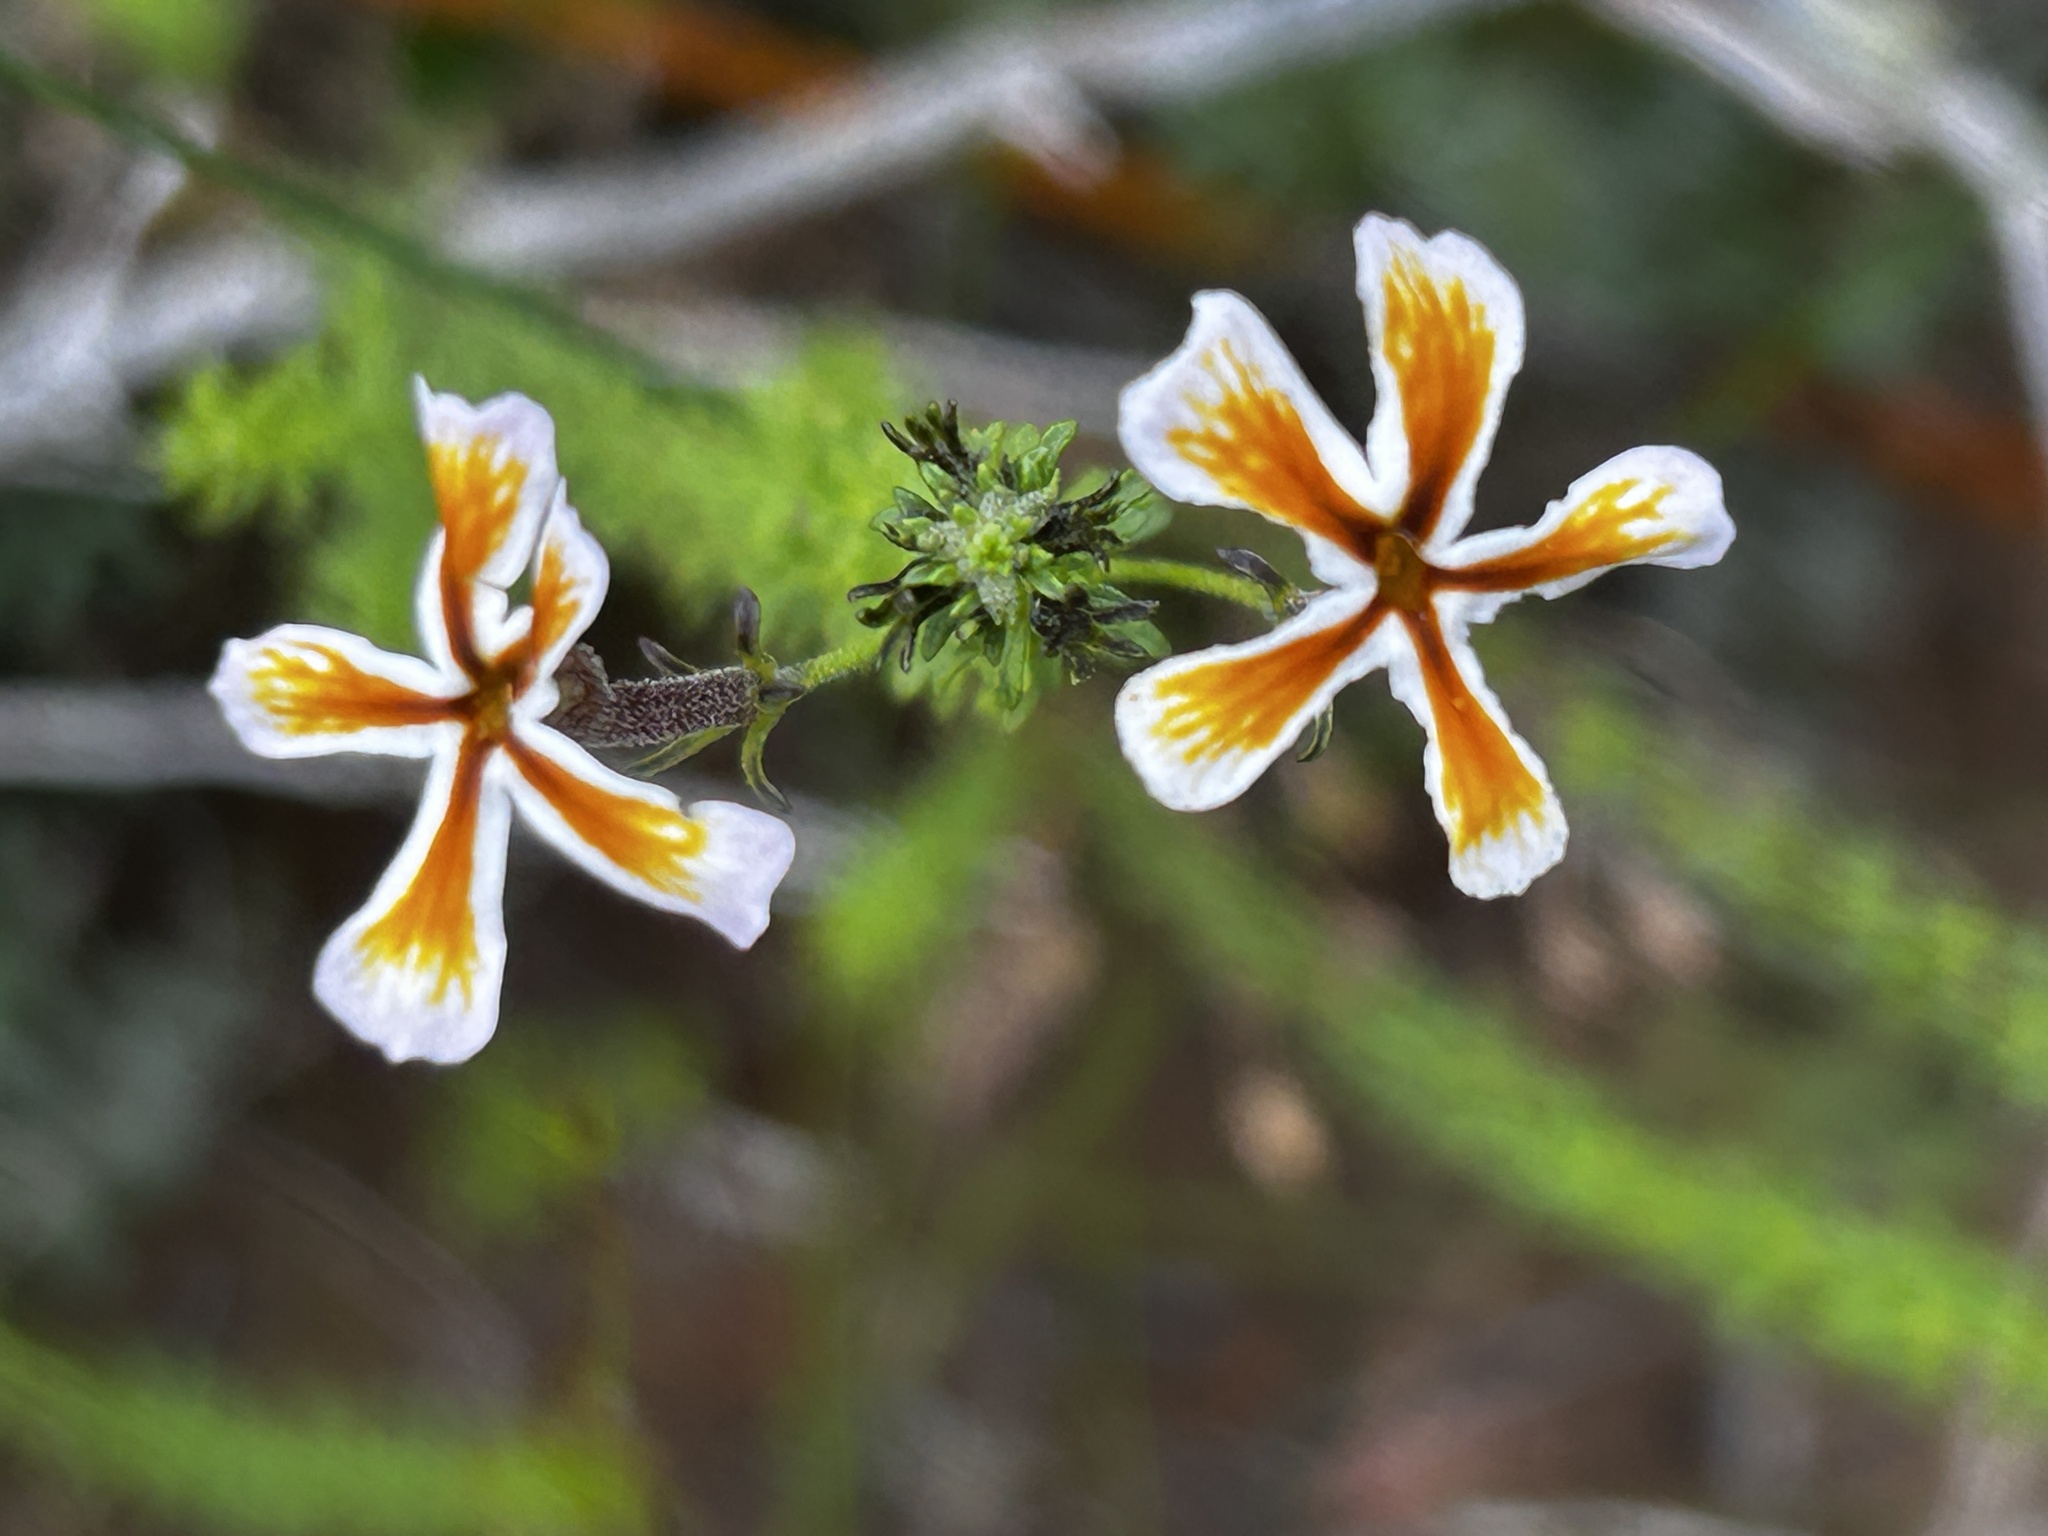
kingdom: Plantae
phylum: Tracheophyta
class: Magnoliopsida
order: Lamiales
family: Scrophulariaceae
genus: Jamesbrittenia
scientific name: Jamesbrittenia albomarginata
